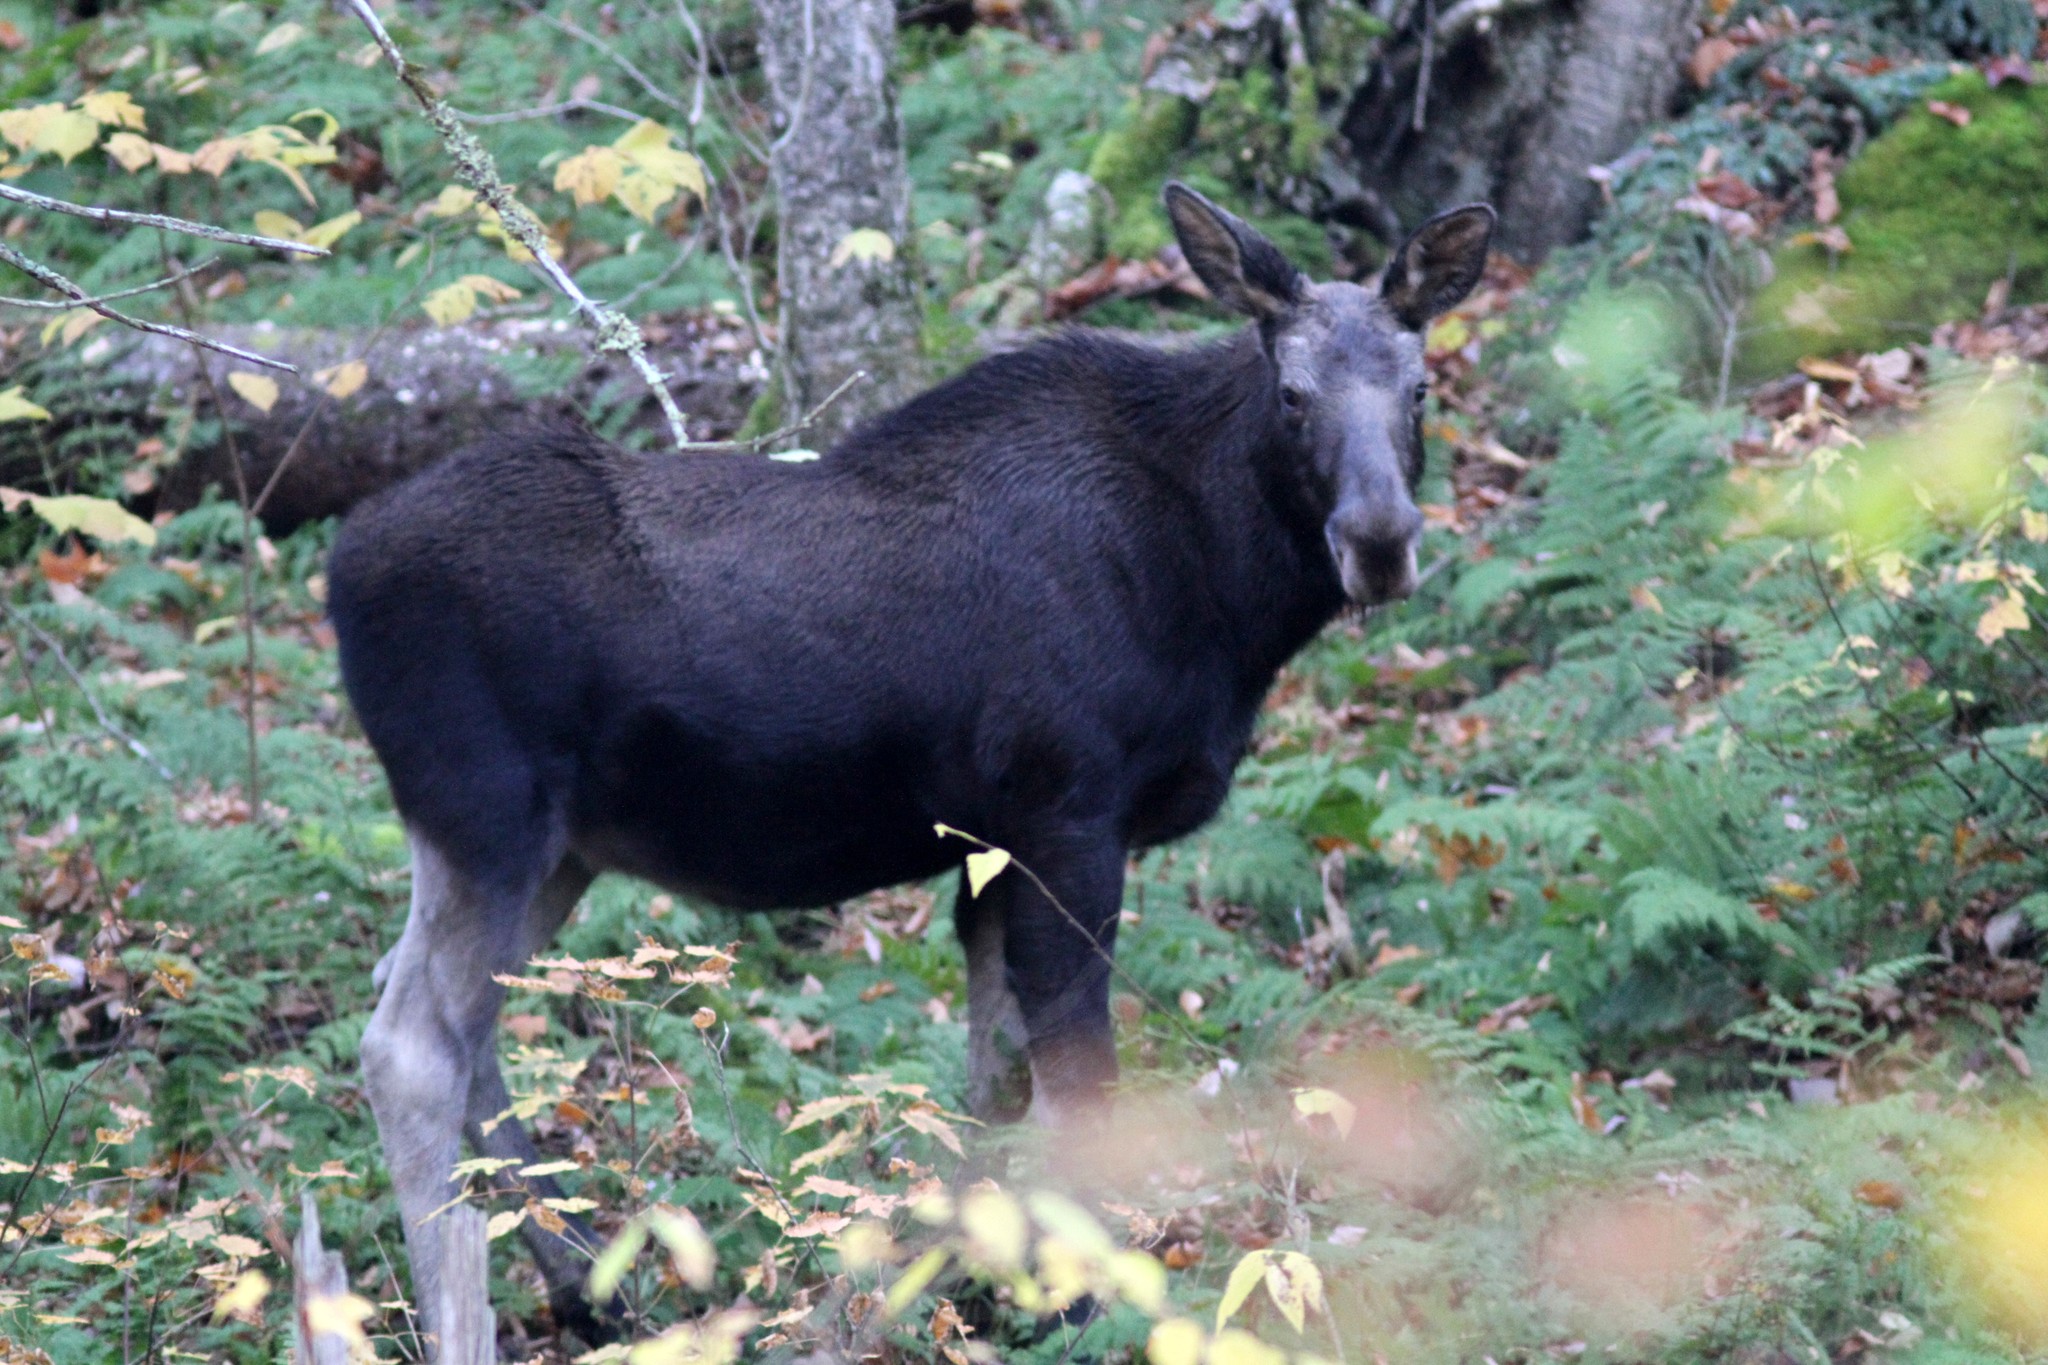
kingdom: Animalia
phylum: Chordata
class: Mammalia
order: Artiodactyla
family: Cervidae
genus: Alces
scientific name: Alces americanus
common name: Moose
